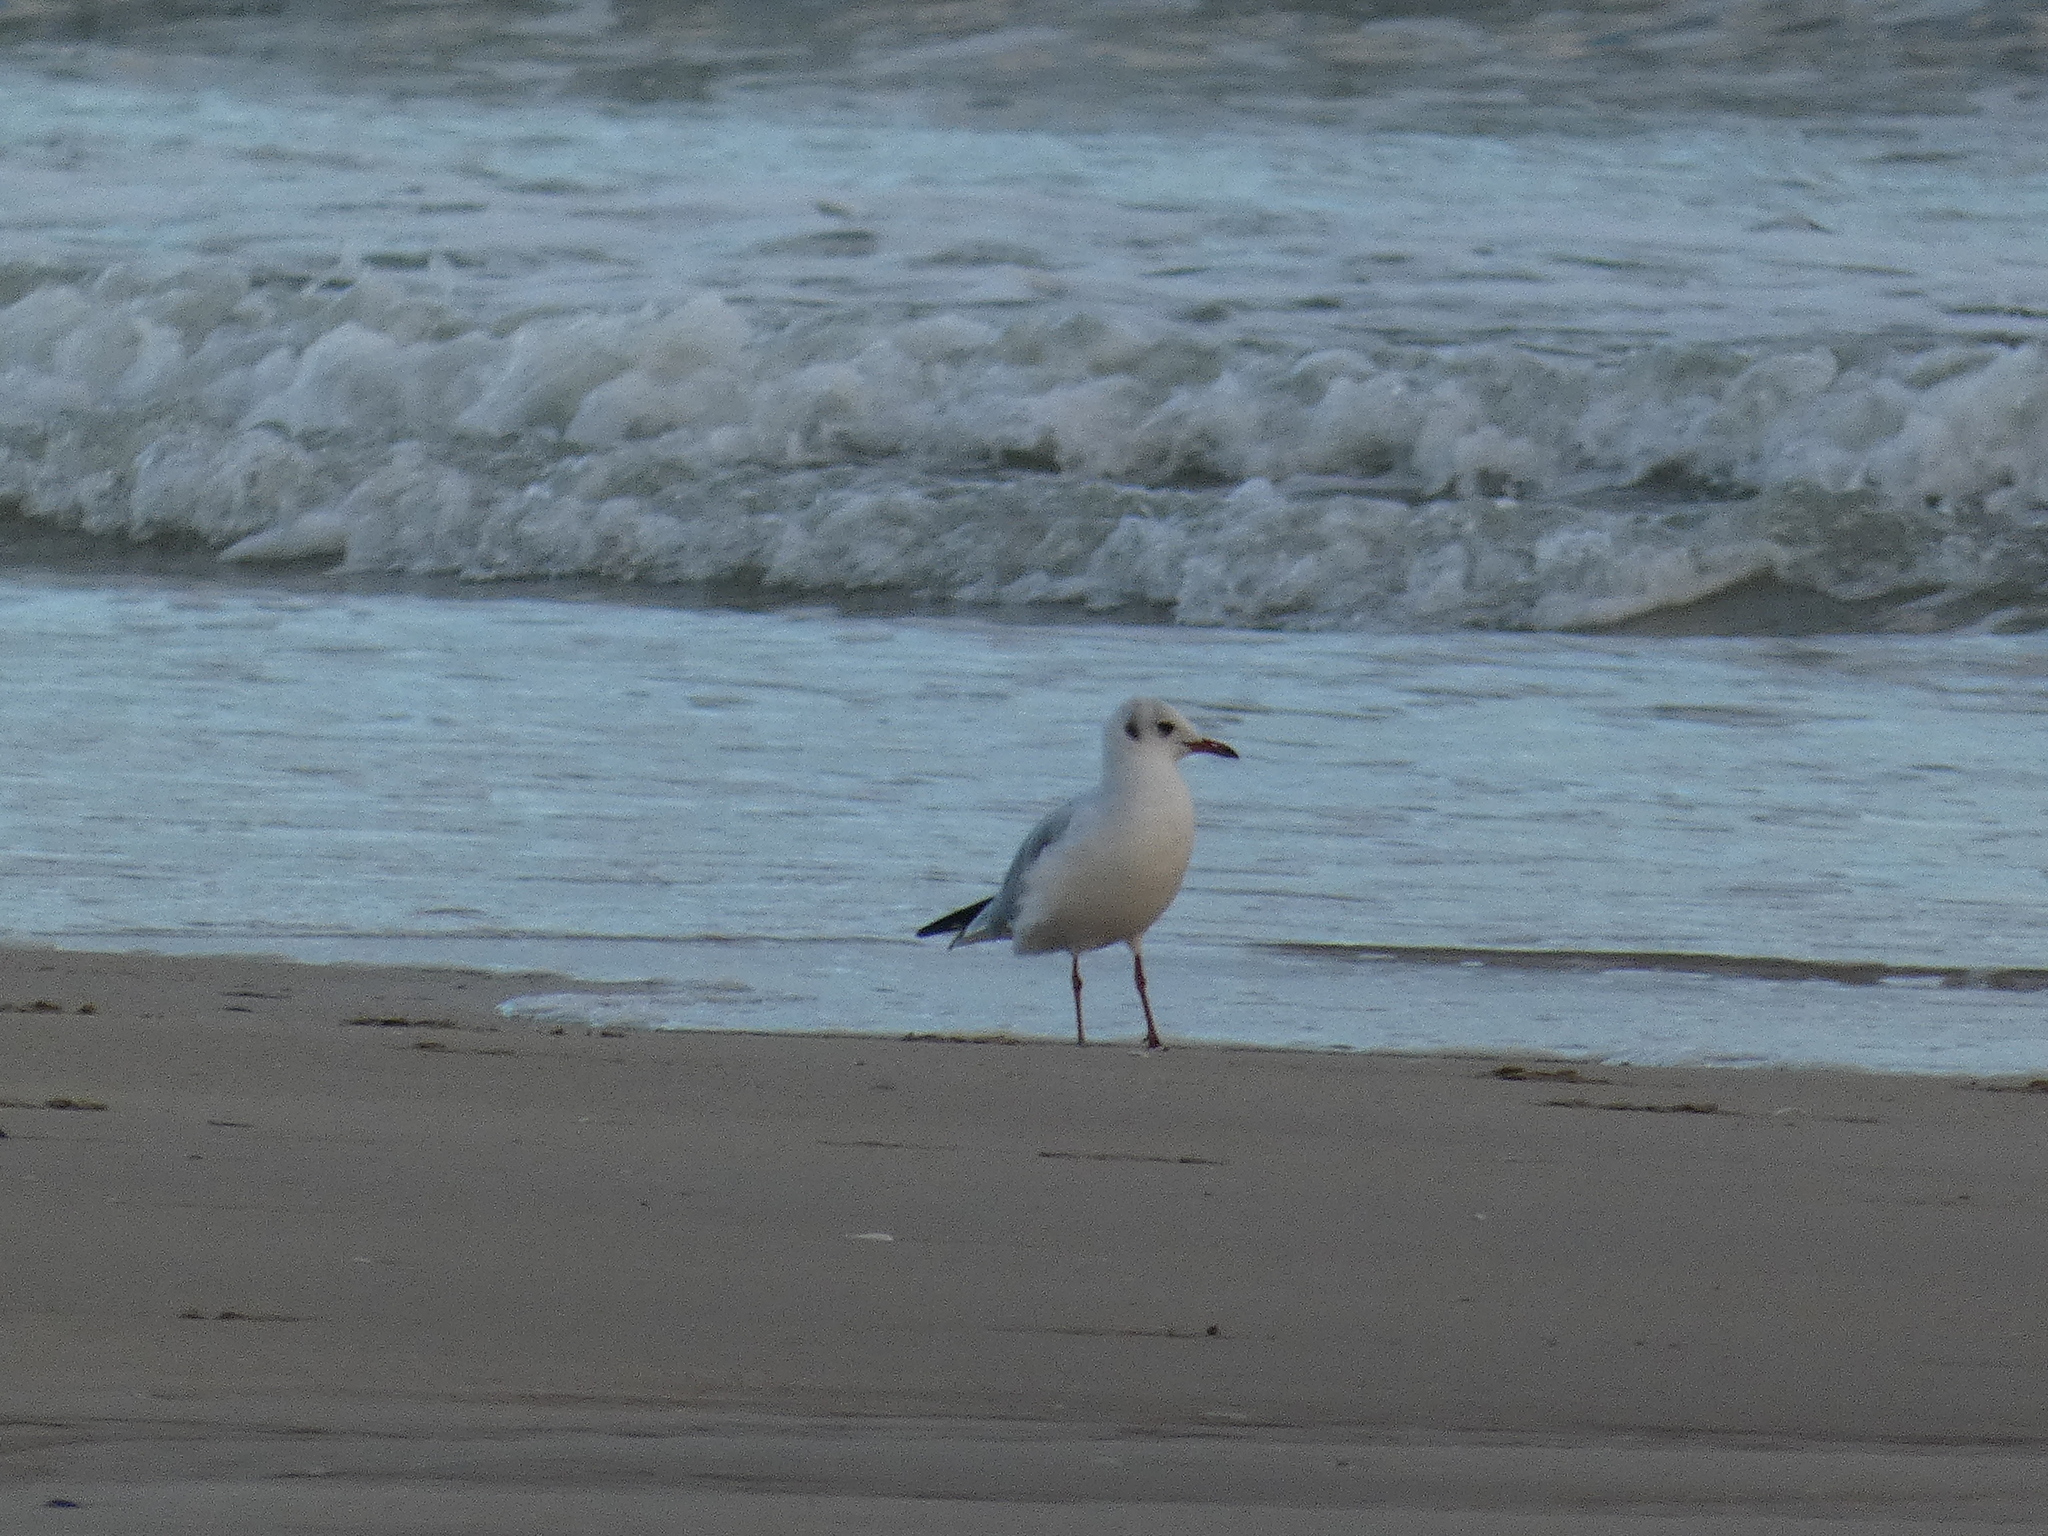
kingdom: Animalia
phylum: Chordata
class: Aves
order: Charadriiformes
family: Laridae
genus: Chroicocephalus
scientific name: Chroicocephalus ridibundus
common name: Black-headed gull
